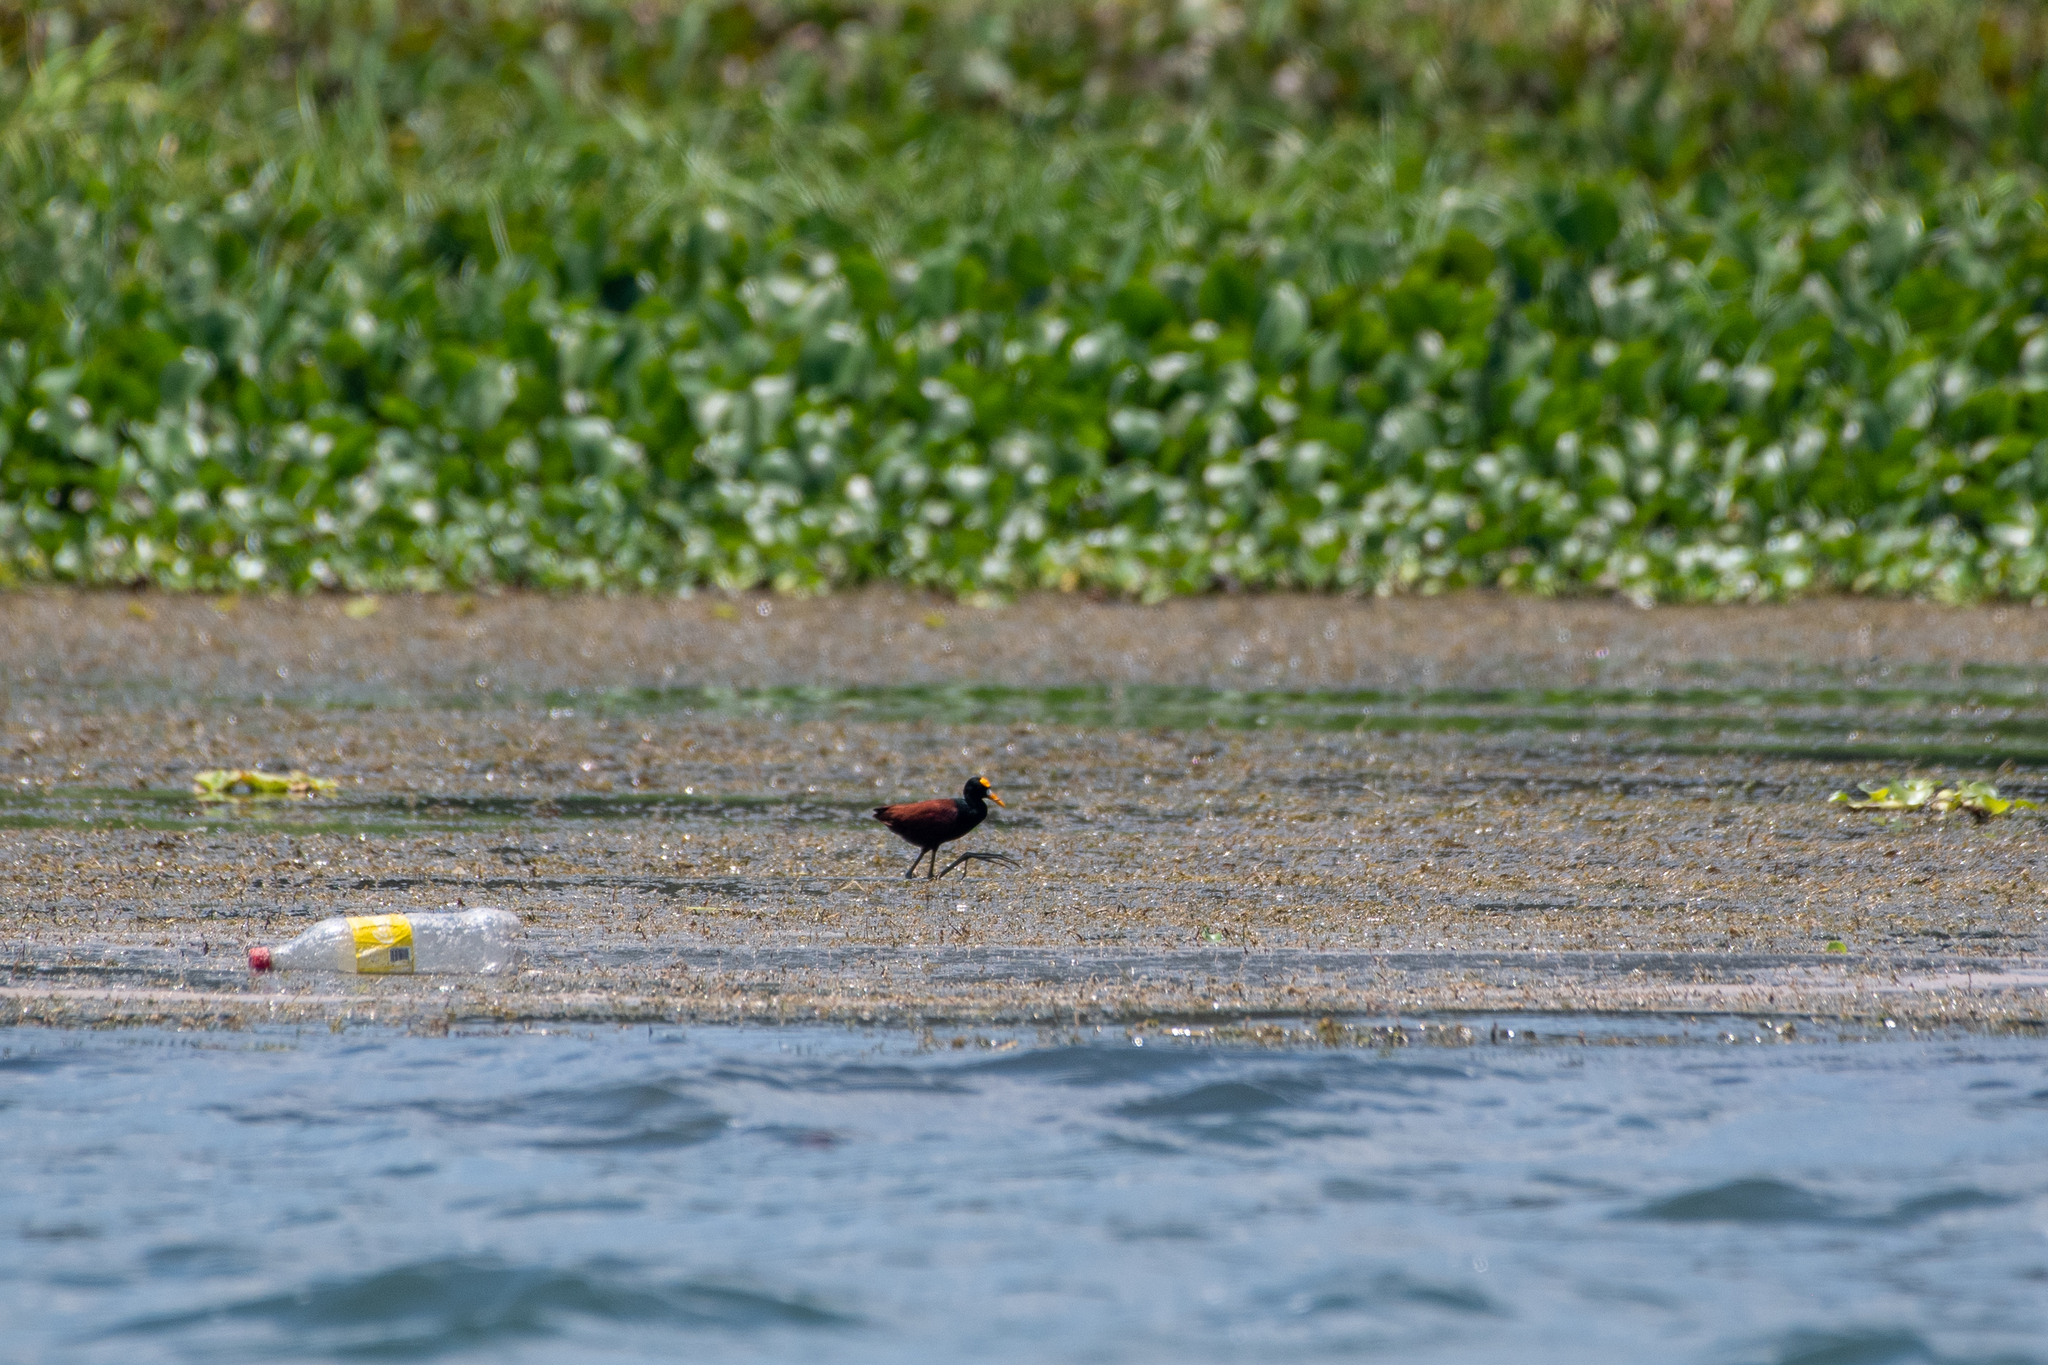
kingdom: Animalia
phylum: Chordata
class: Aves
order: Charadriiformes
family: Jacanidae
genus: Jacana
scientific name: Jacana spinosa
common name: Northern jacana
